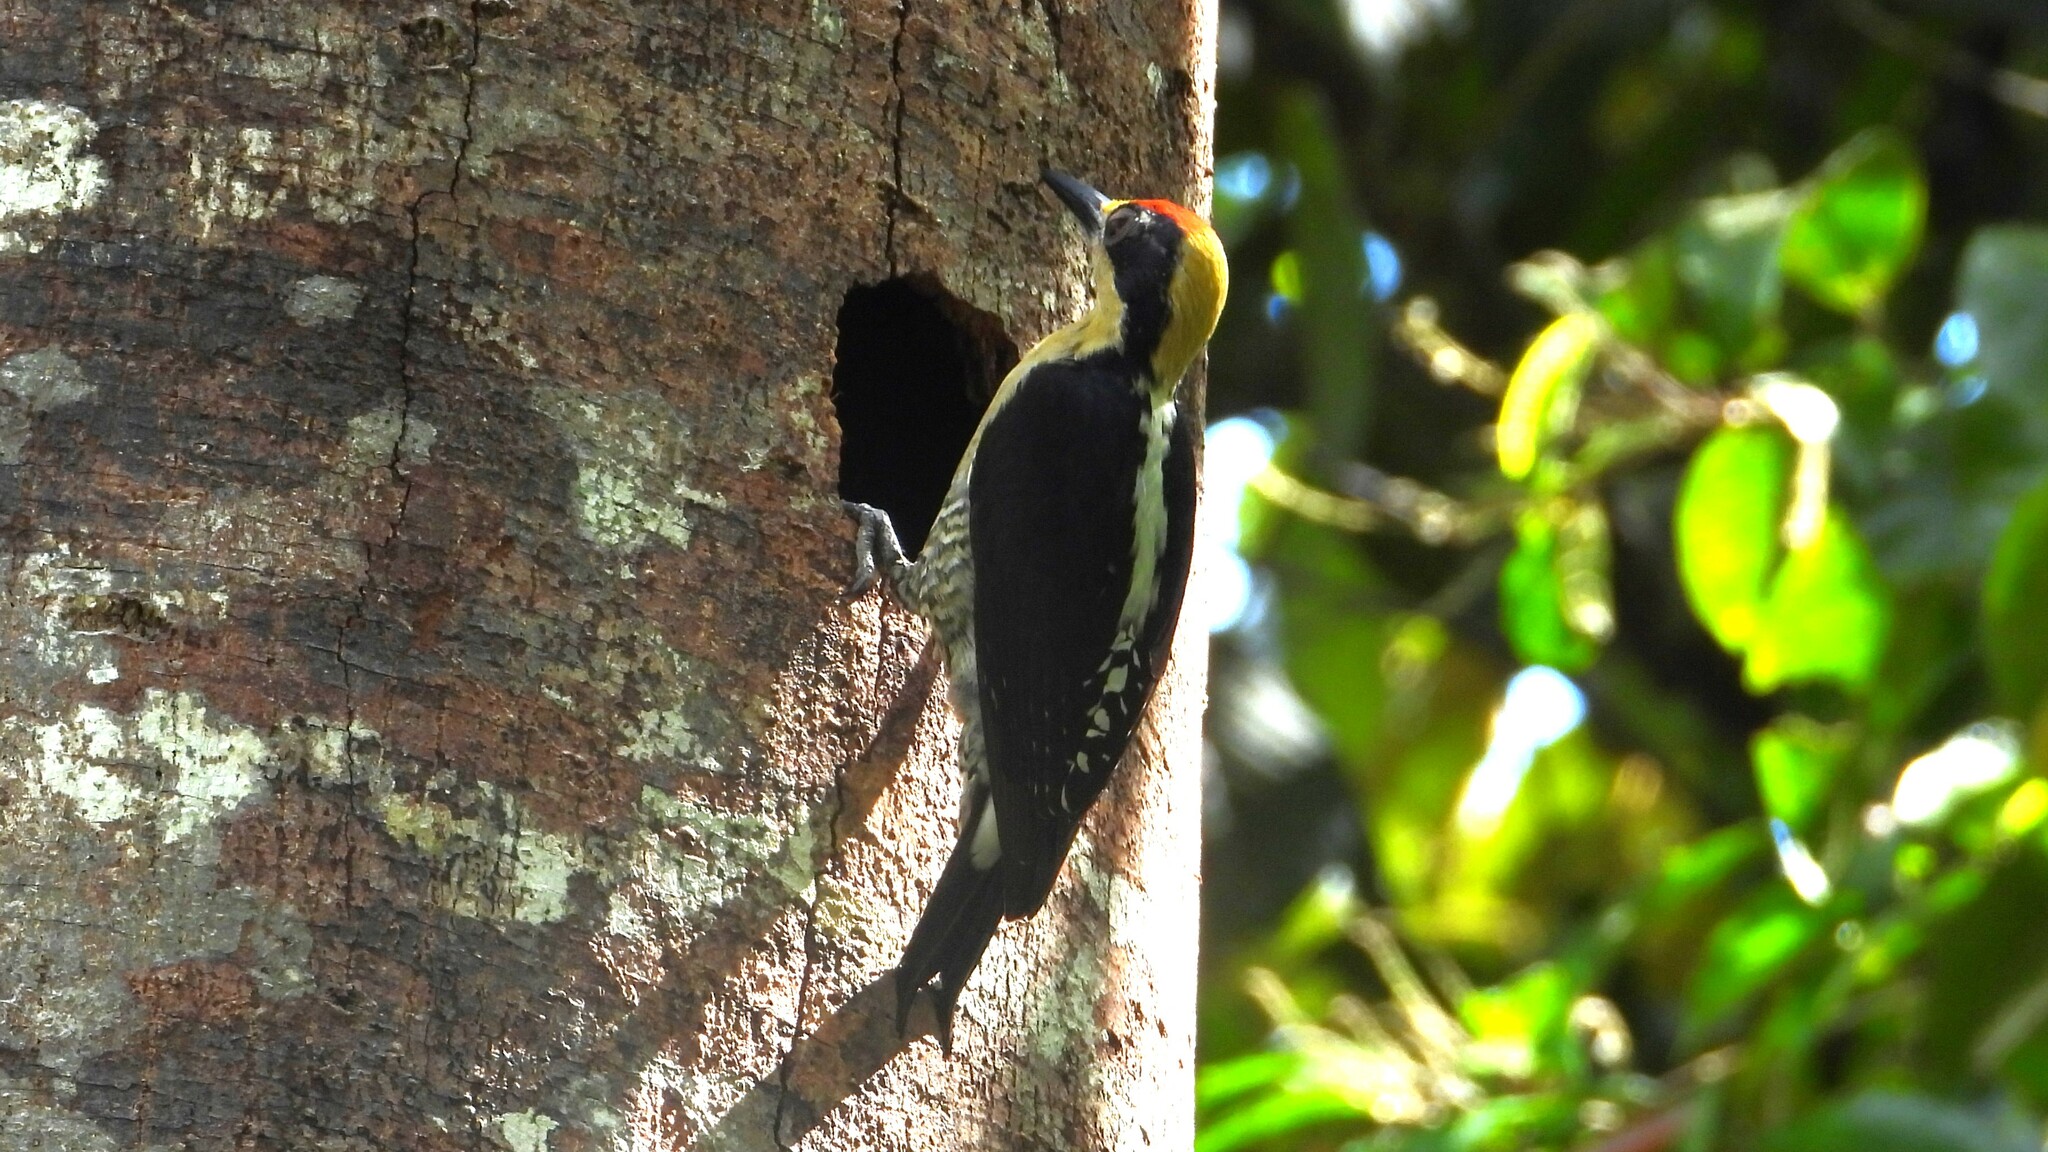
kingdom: Animalia
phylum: Chordata
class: Aves
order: Piciformes
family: Picidae
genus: Melanerpes
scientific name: Melanerpes chrysauchen
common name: Golden-naped woodpecker
